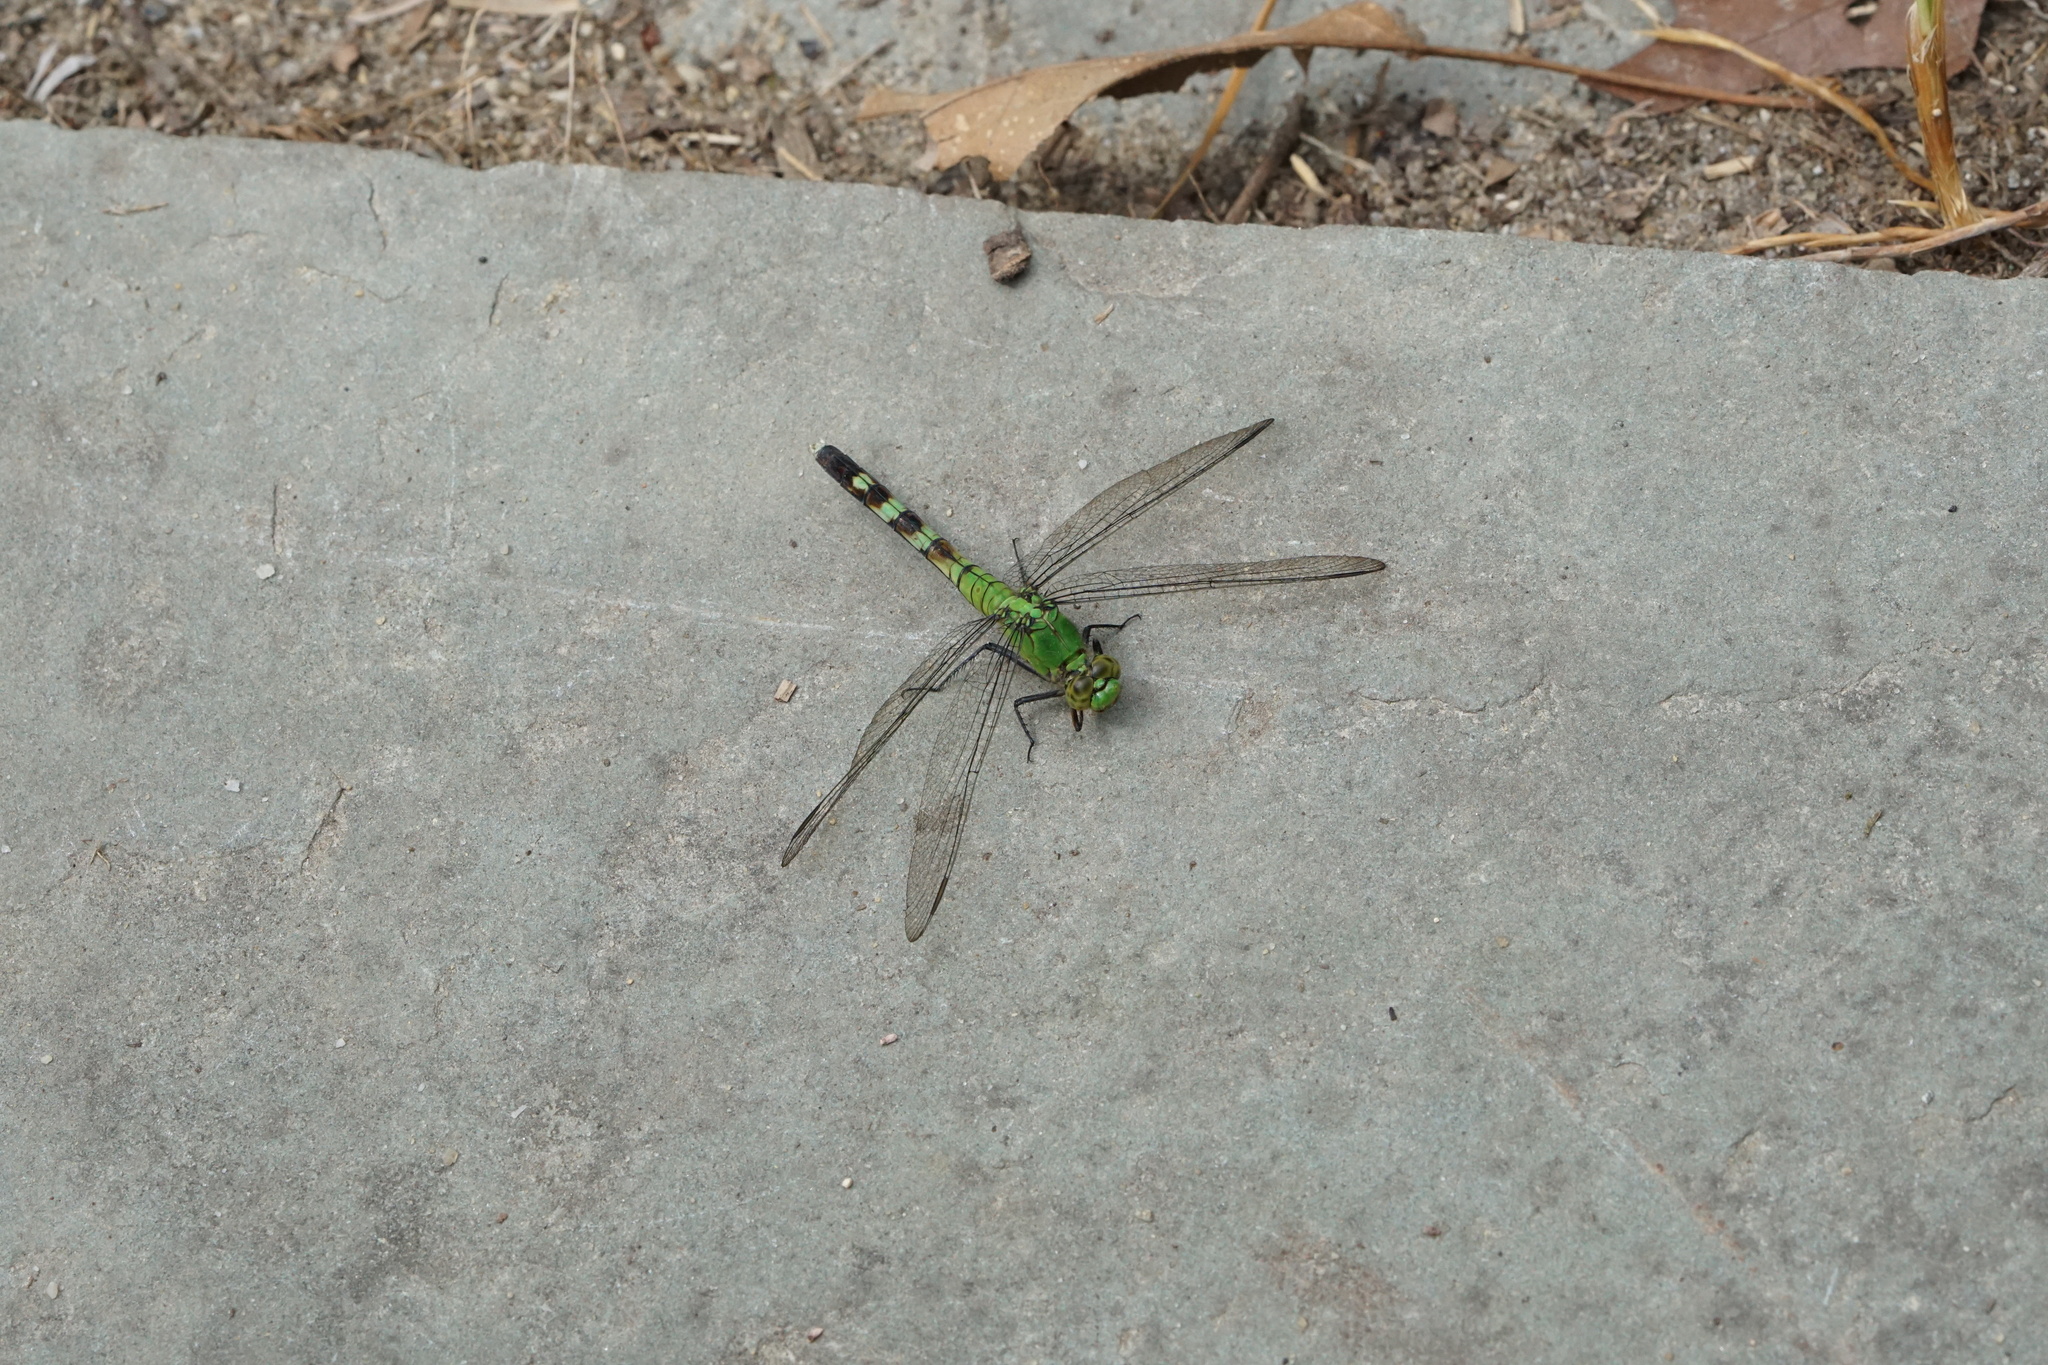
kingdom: Animalia
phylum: Arthropoda
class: Insecta
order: Odonata
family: Libellulidae
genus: Erythemis
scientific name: Erythemis simplicicollis
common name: Eastern pondhawk
